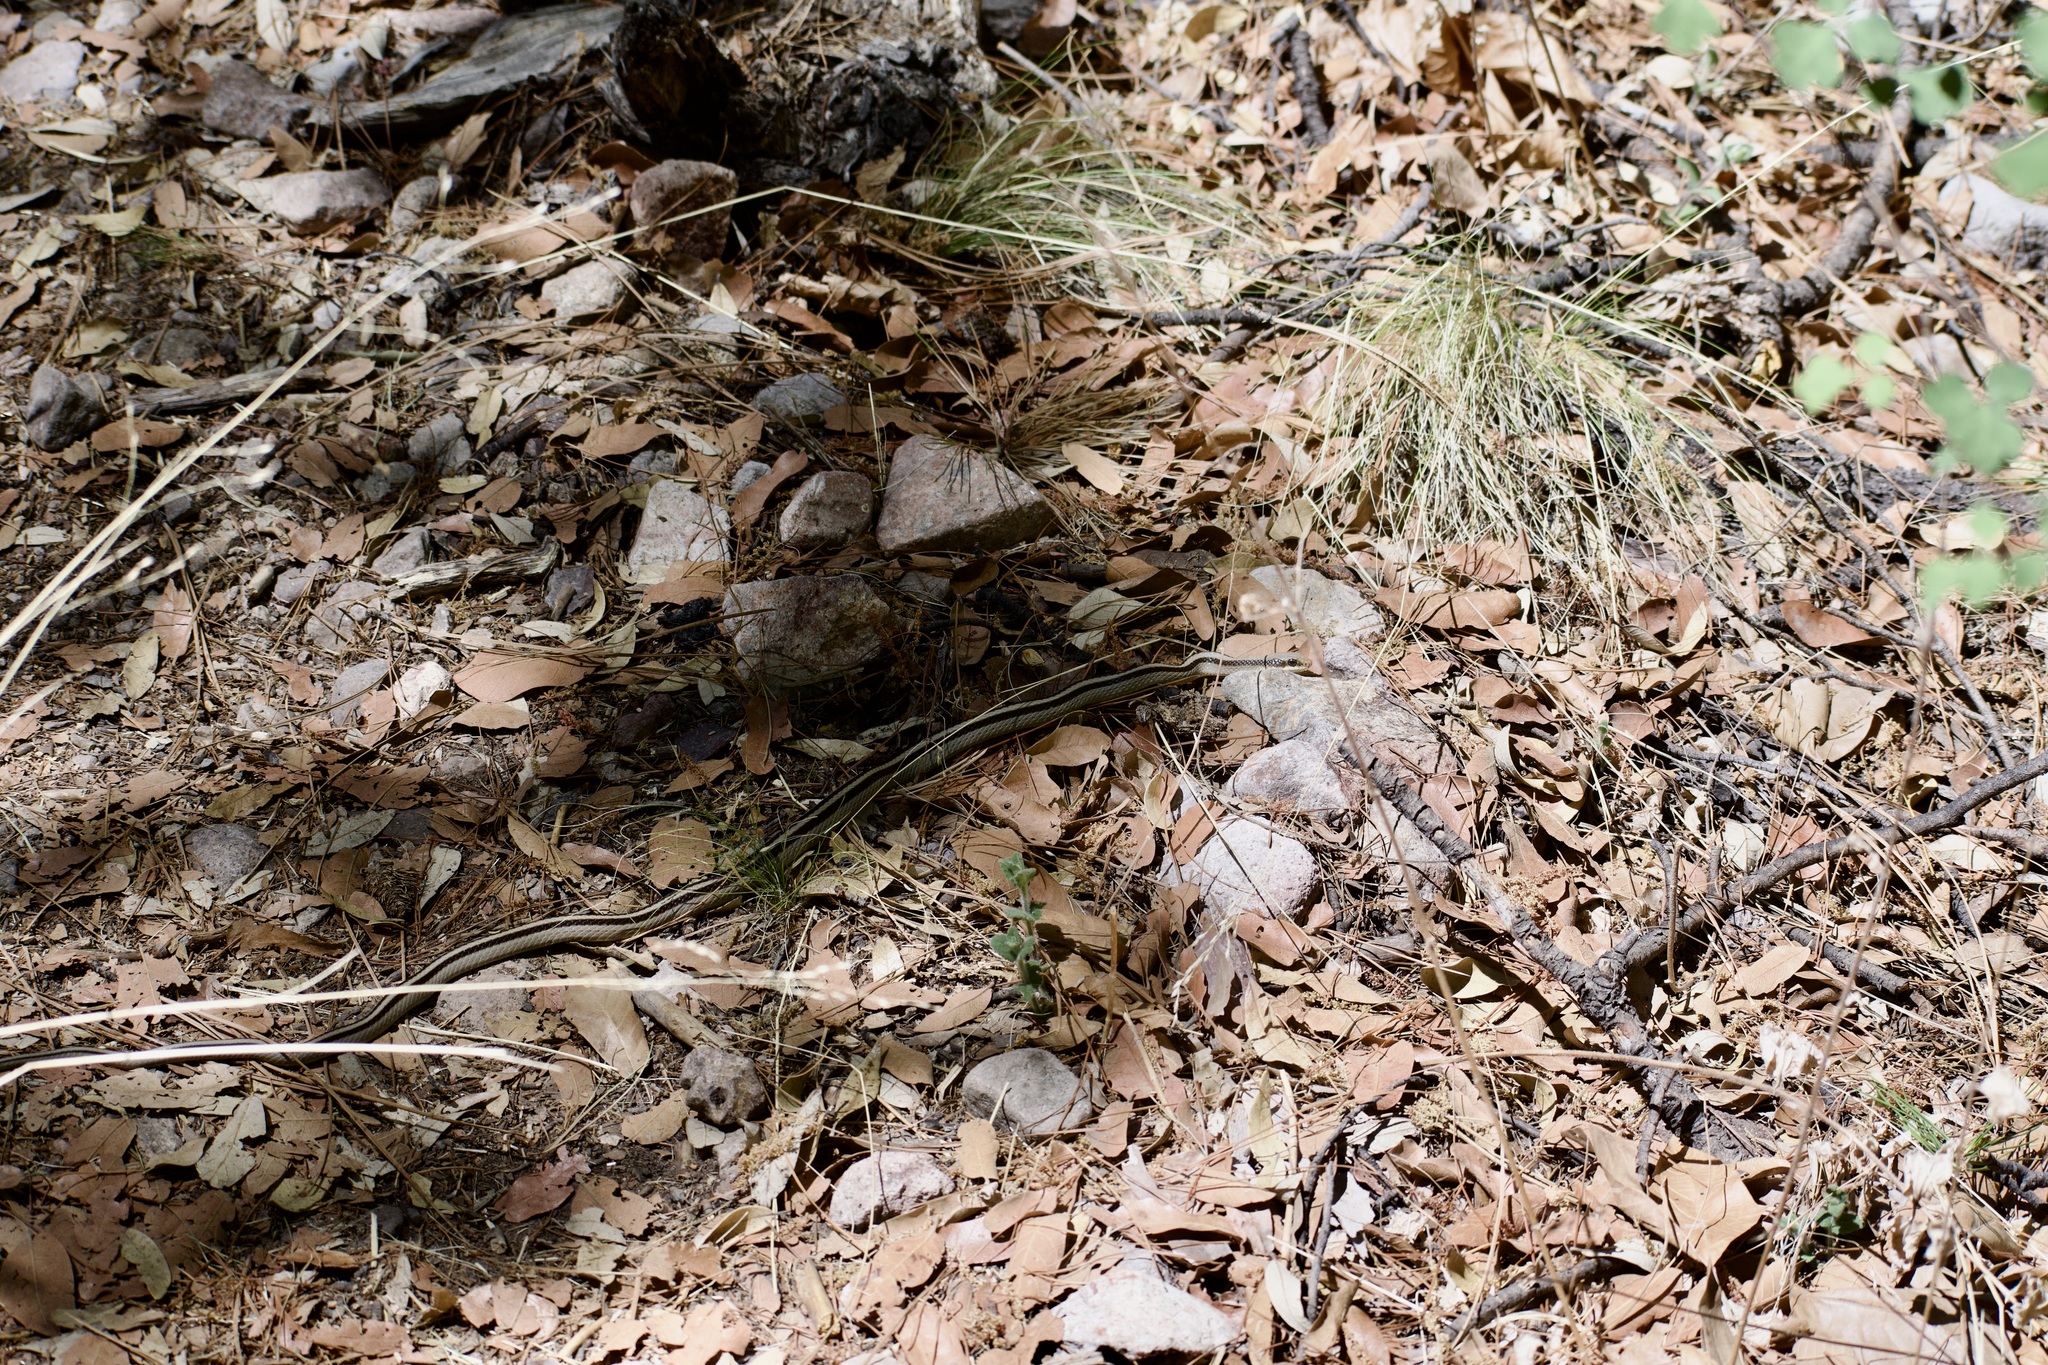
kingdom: Animalia
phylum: Chordata
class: Squamata
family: Colubridae
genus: Salvadora
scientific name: Salvadora grahamiae
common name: Mountain patchnose snake
